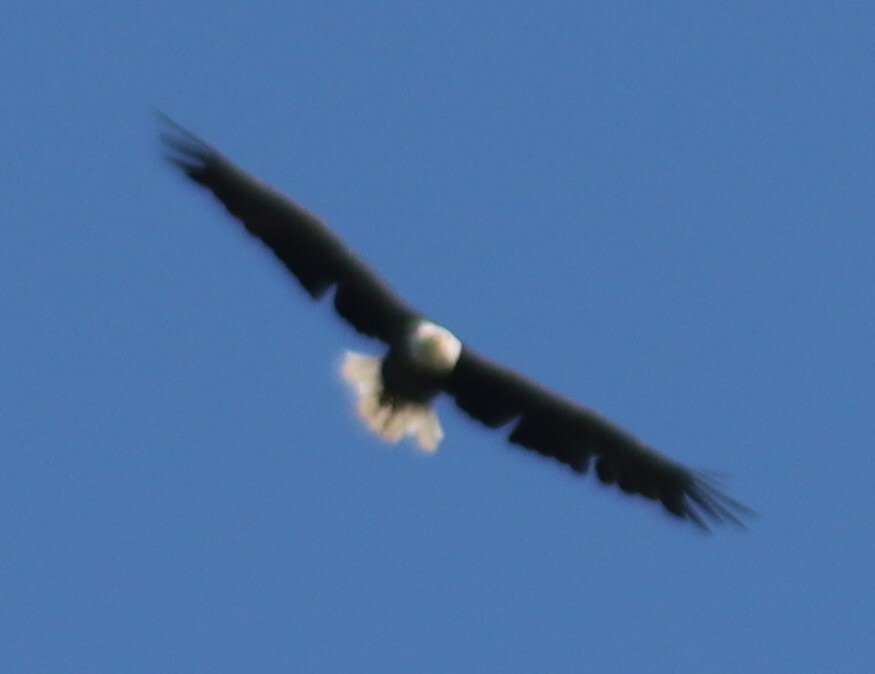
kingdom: Animalia
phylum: Chordata
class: Aves
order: Accipitriformes
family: Accipitridae
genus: Haliaeetus
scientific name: Haliaeetus leucocephalus
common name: Bald eagle
